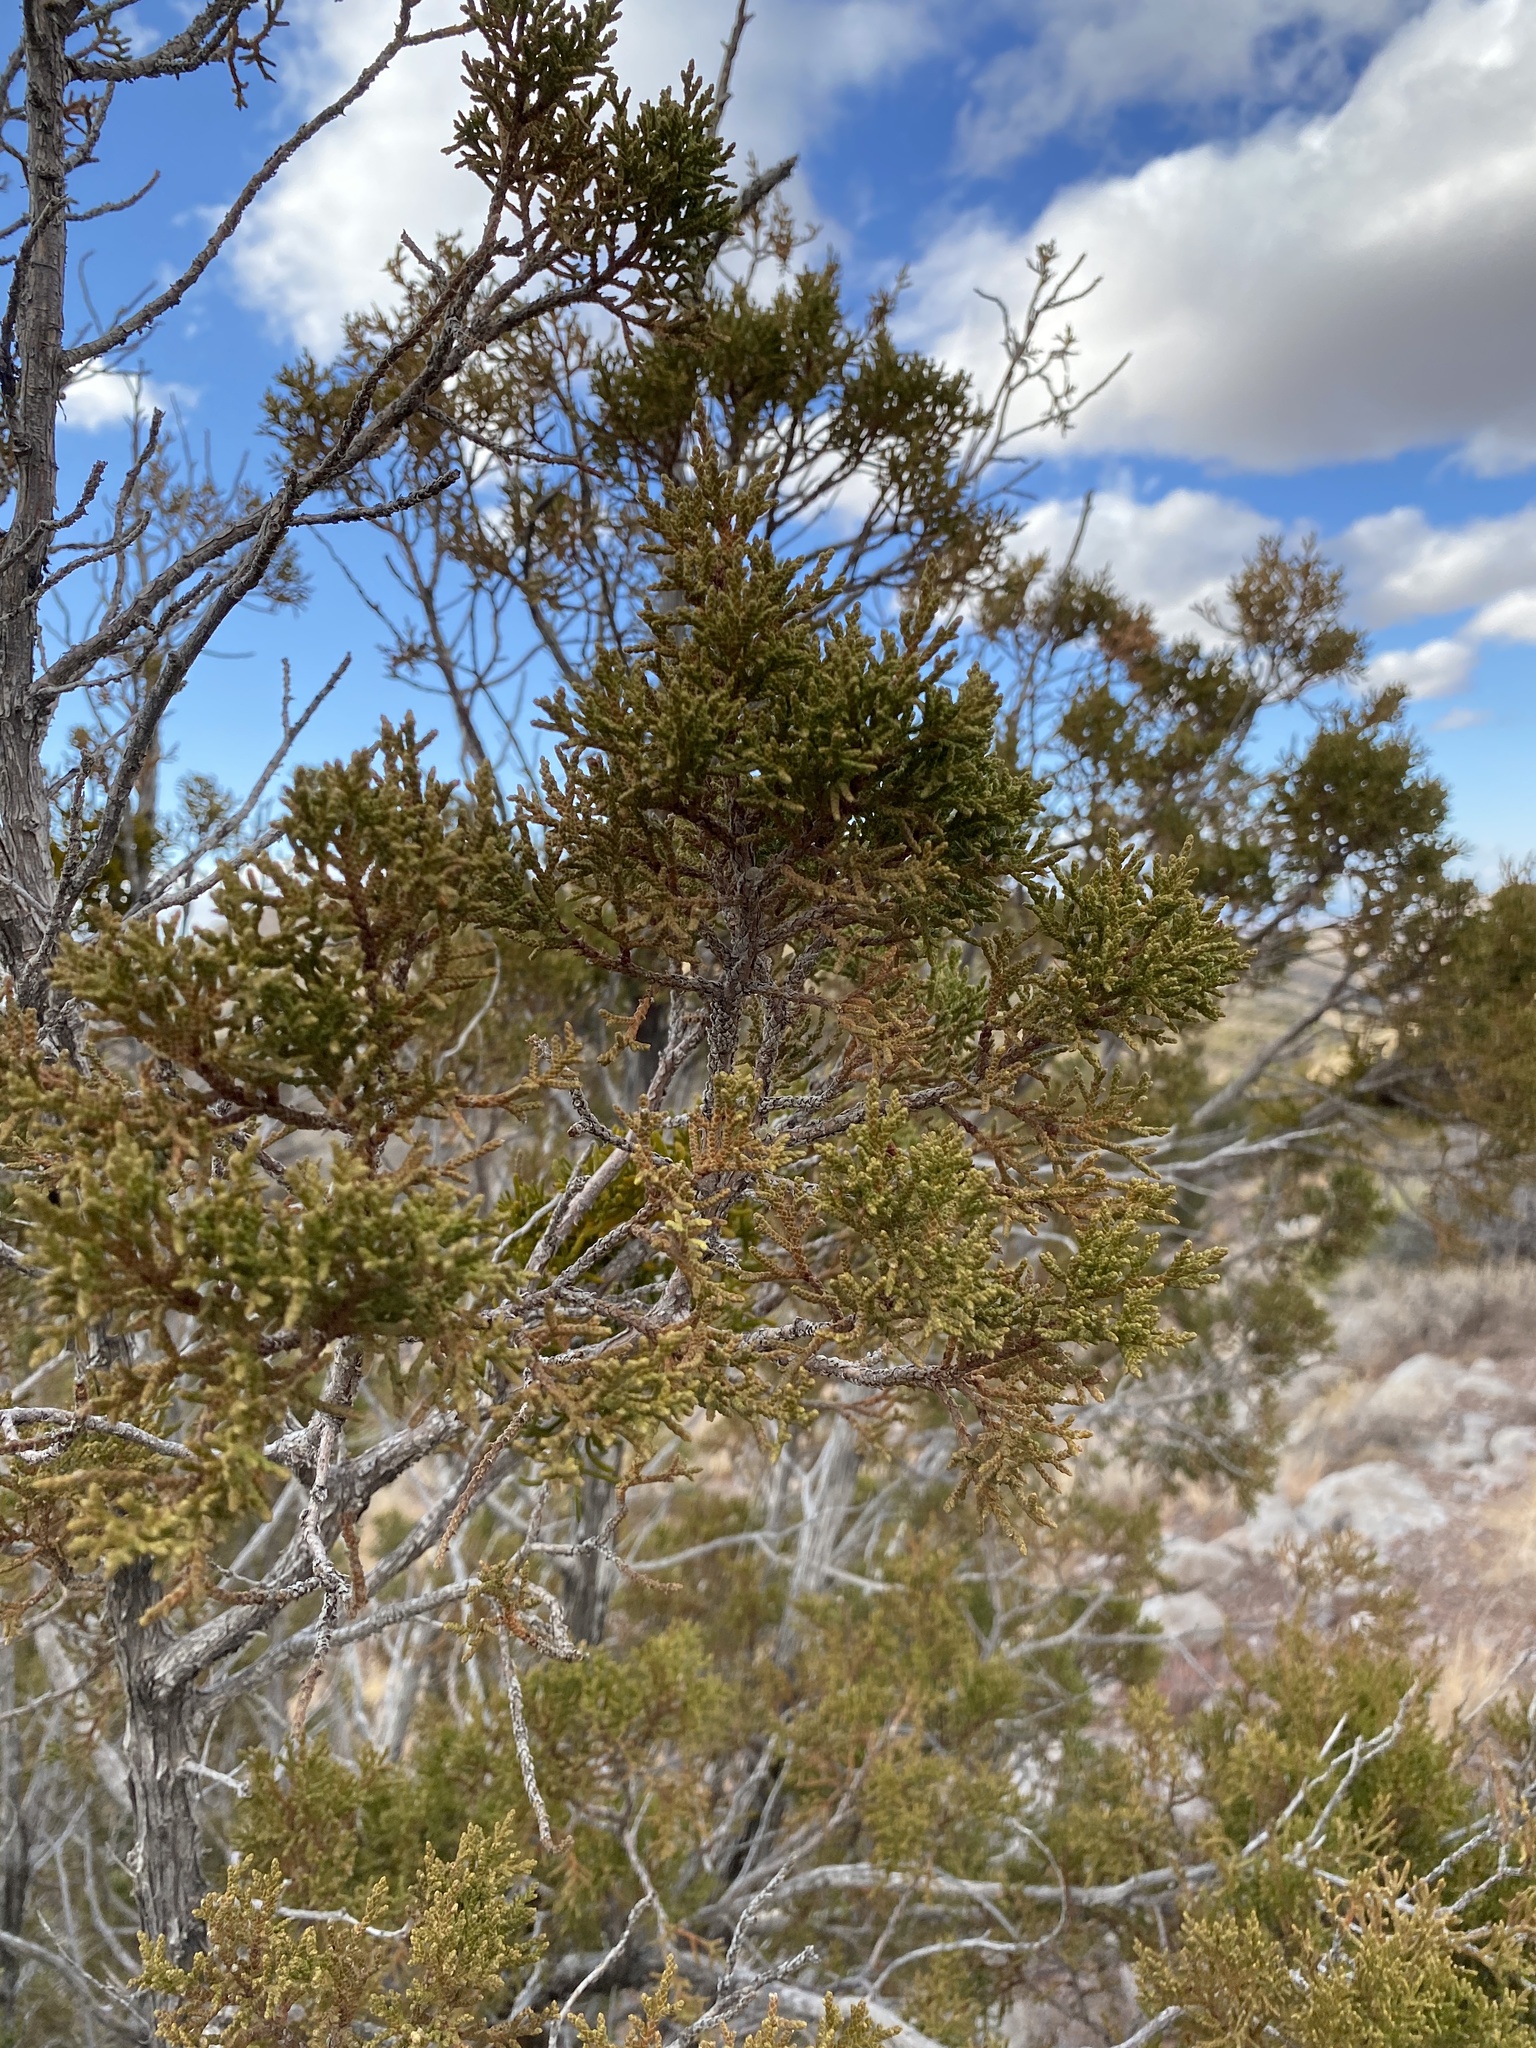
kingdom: Plantae
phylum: Tracheophyta
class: Pinopsida
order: Pinales
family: Cupressaceae
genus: Juniperus
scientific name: Juniperus monosperma
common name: One-seed juniper
